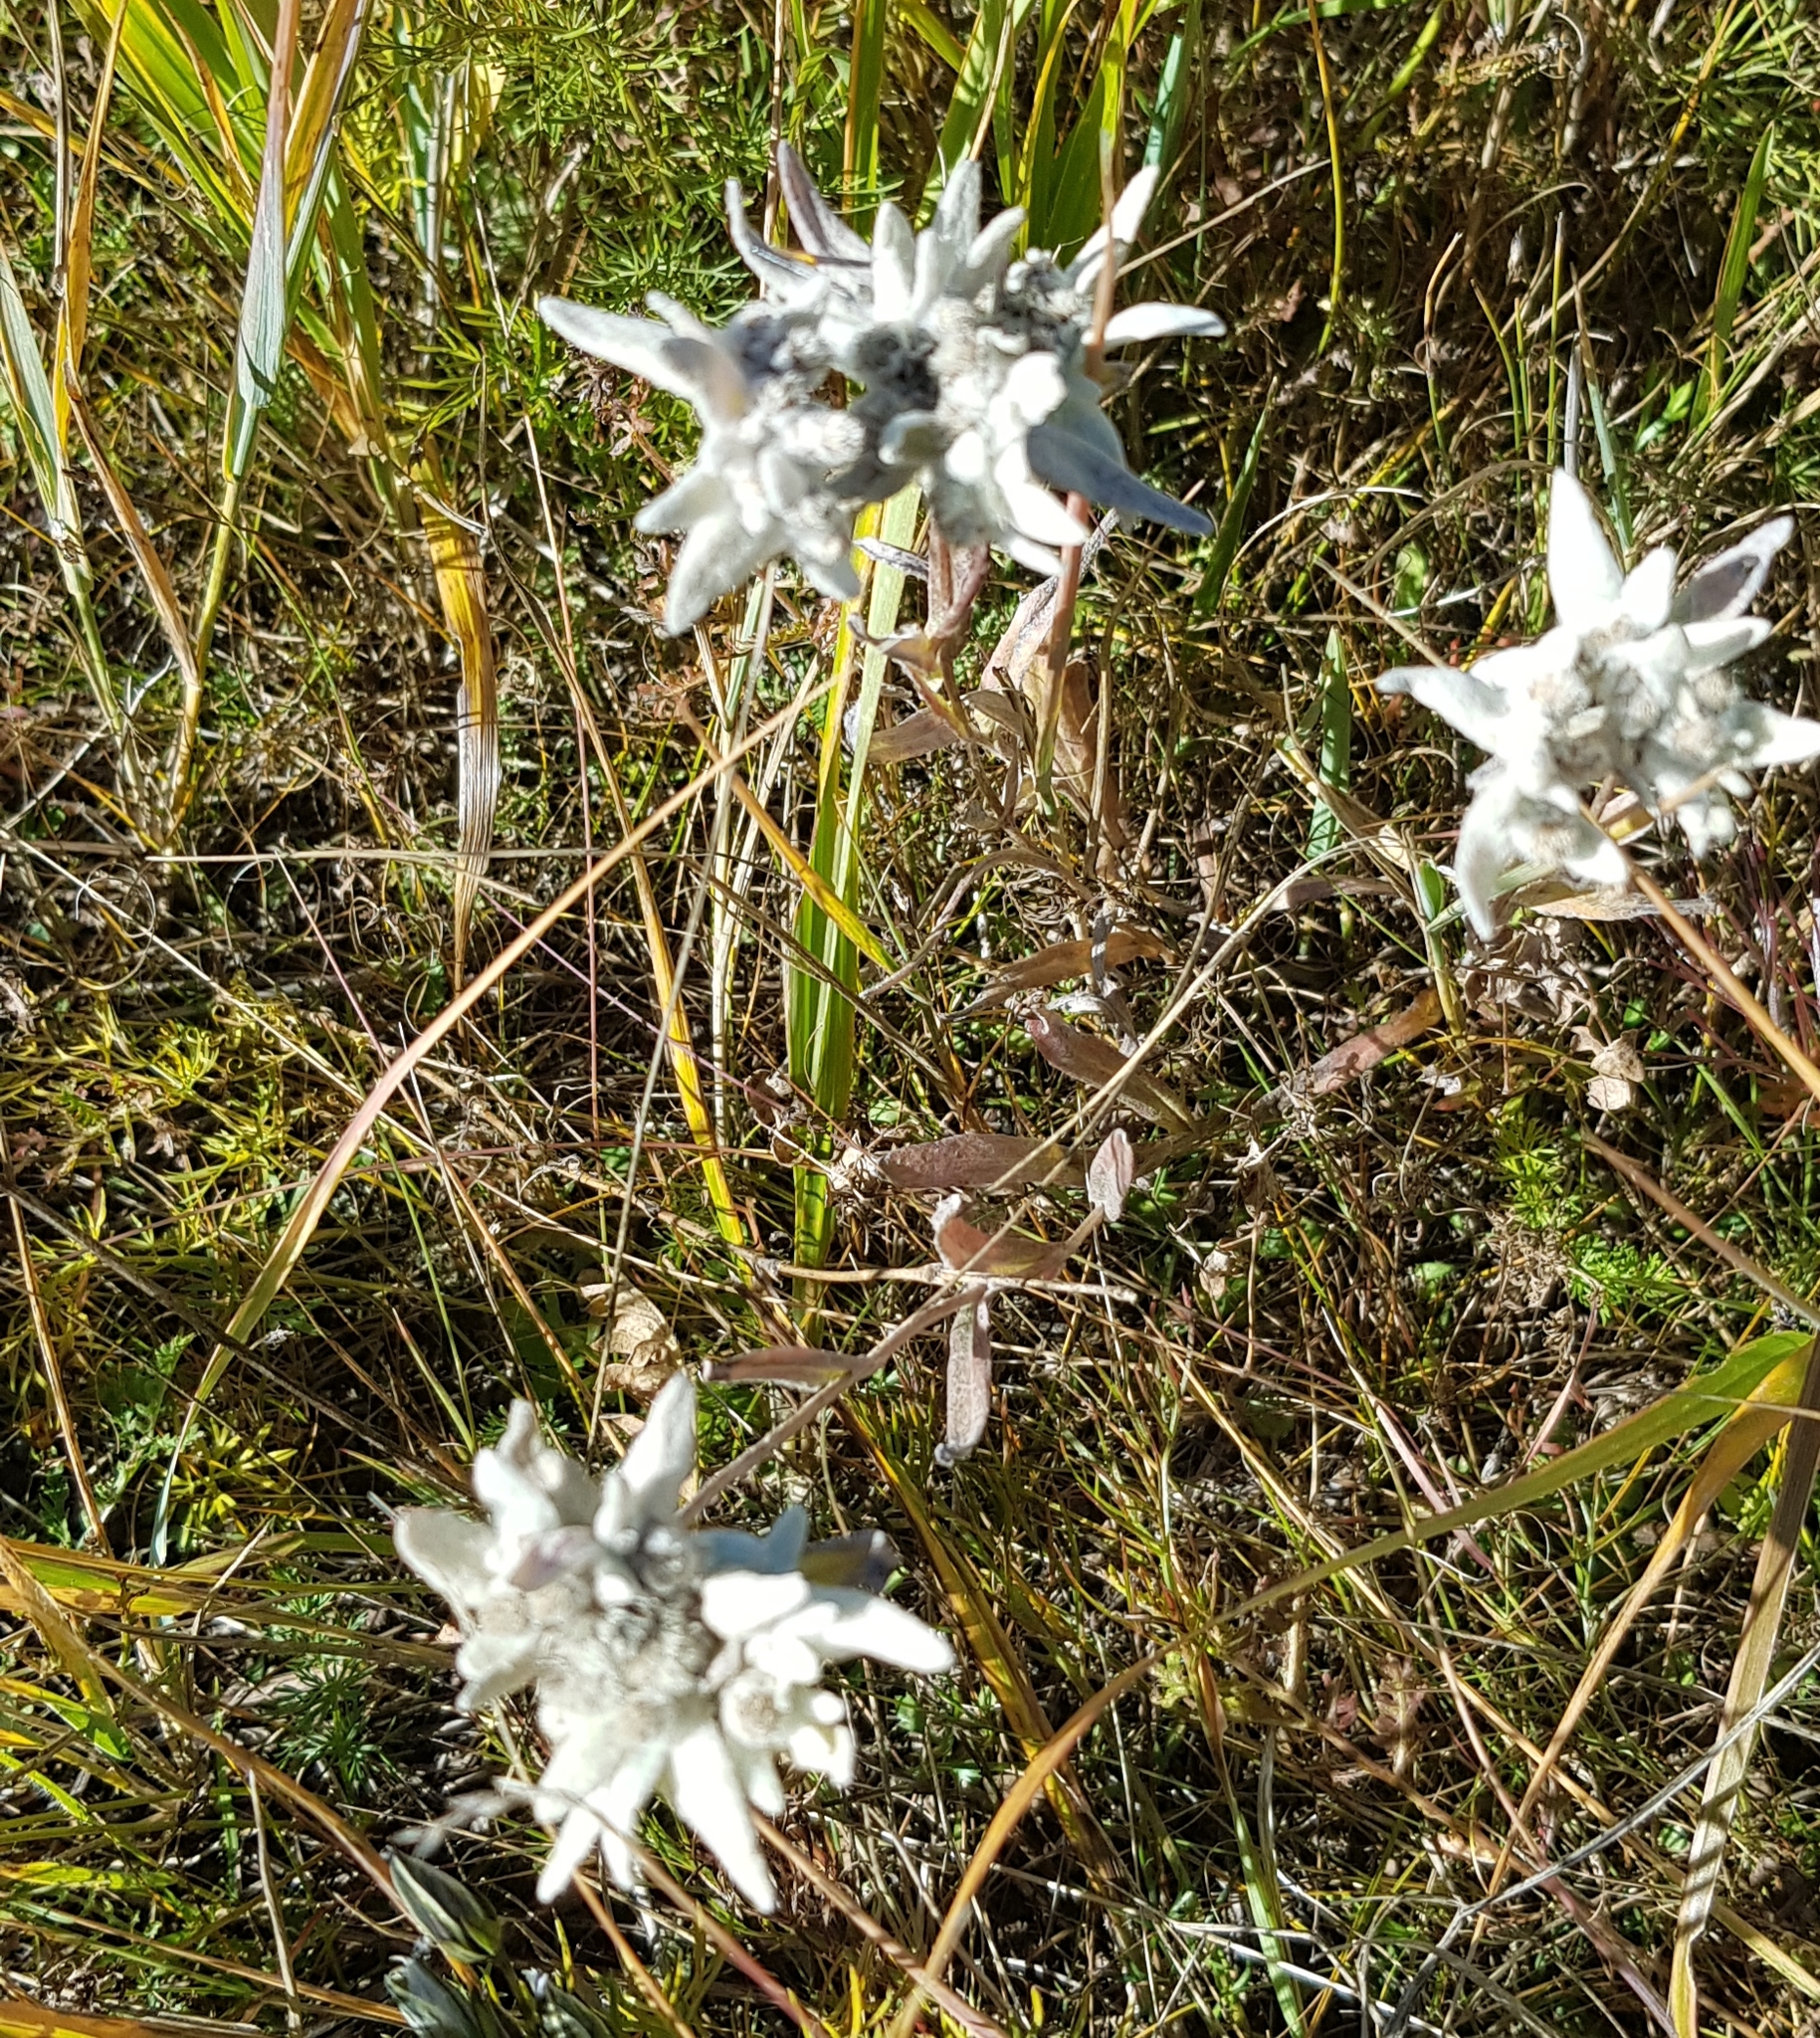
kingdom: Plantae
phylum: Tracheophyta
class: Magnoliopsida
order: Asterales
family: Asteraceae
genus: Leontopodium
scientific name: Leontopodium leontopodioides
